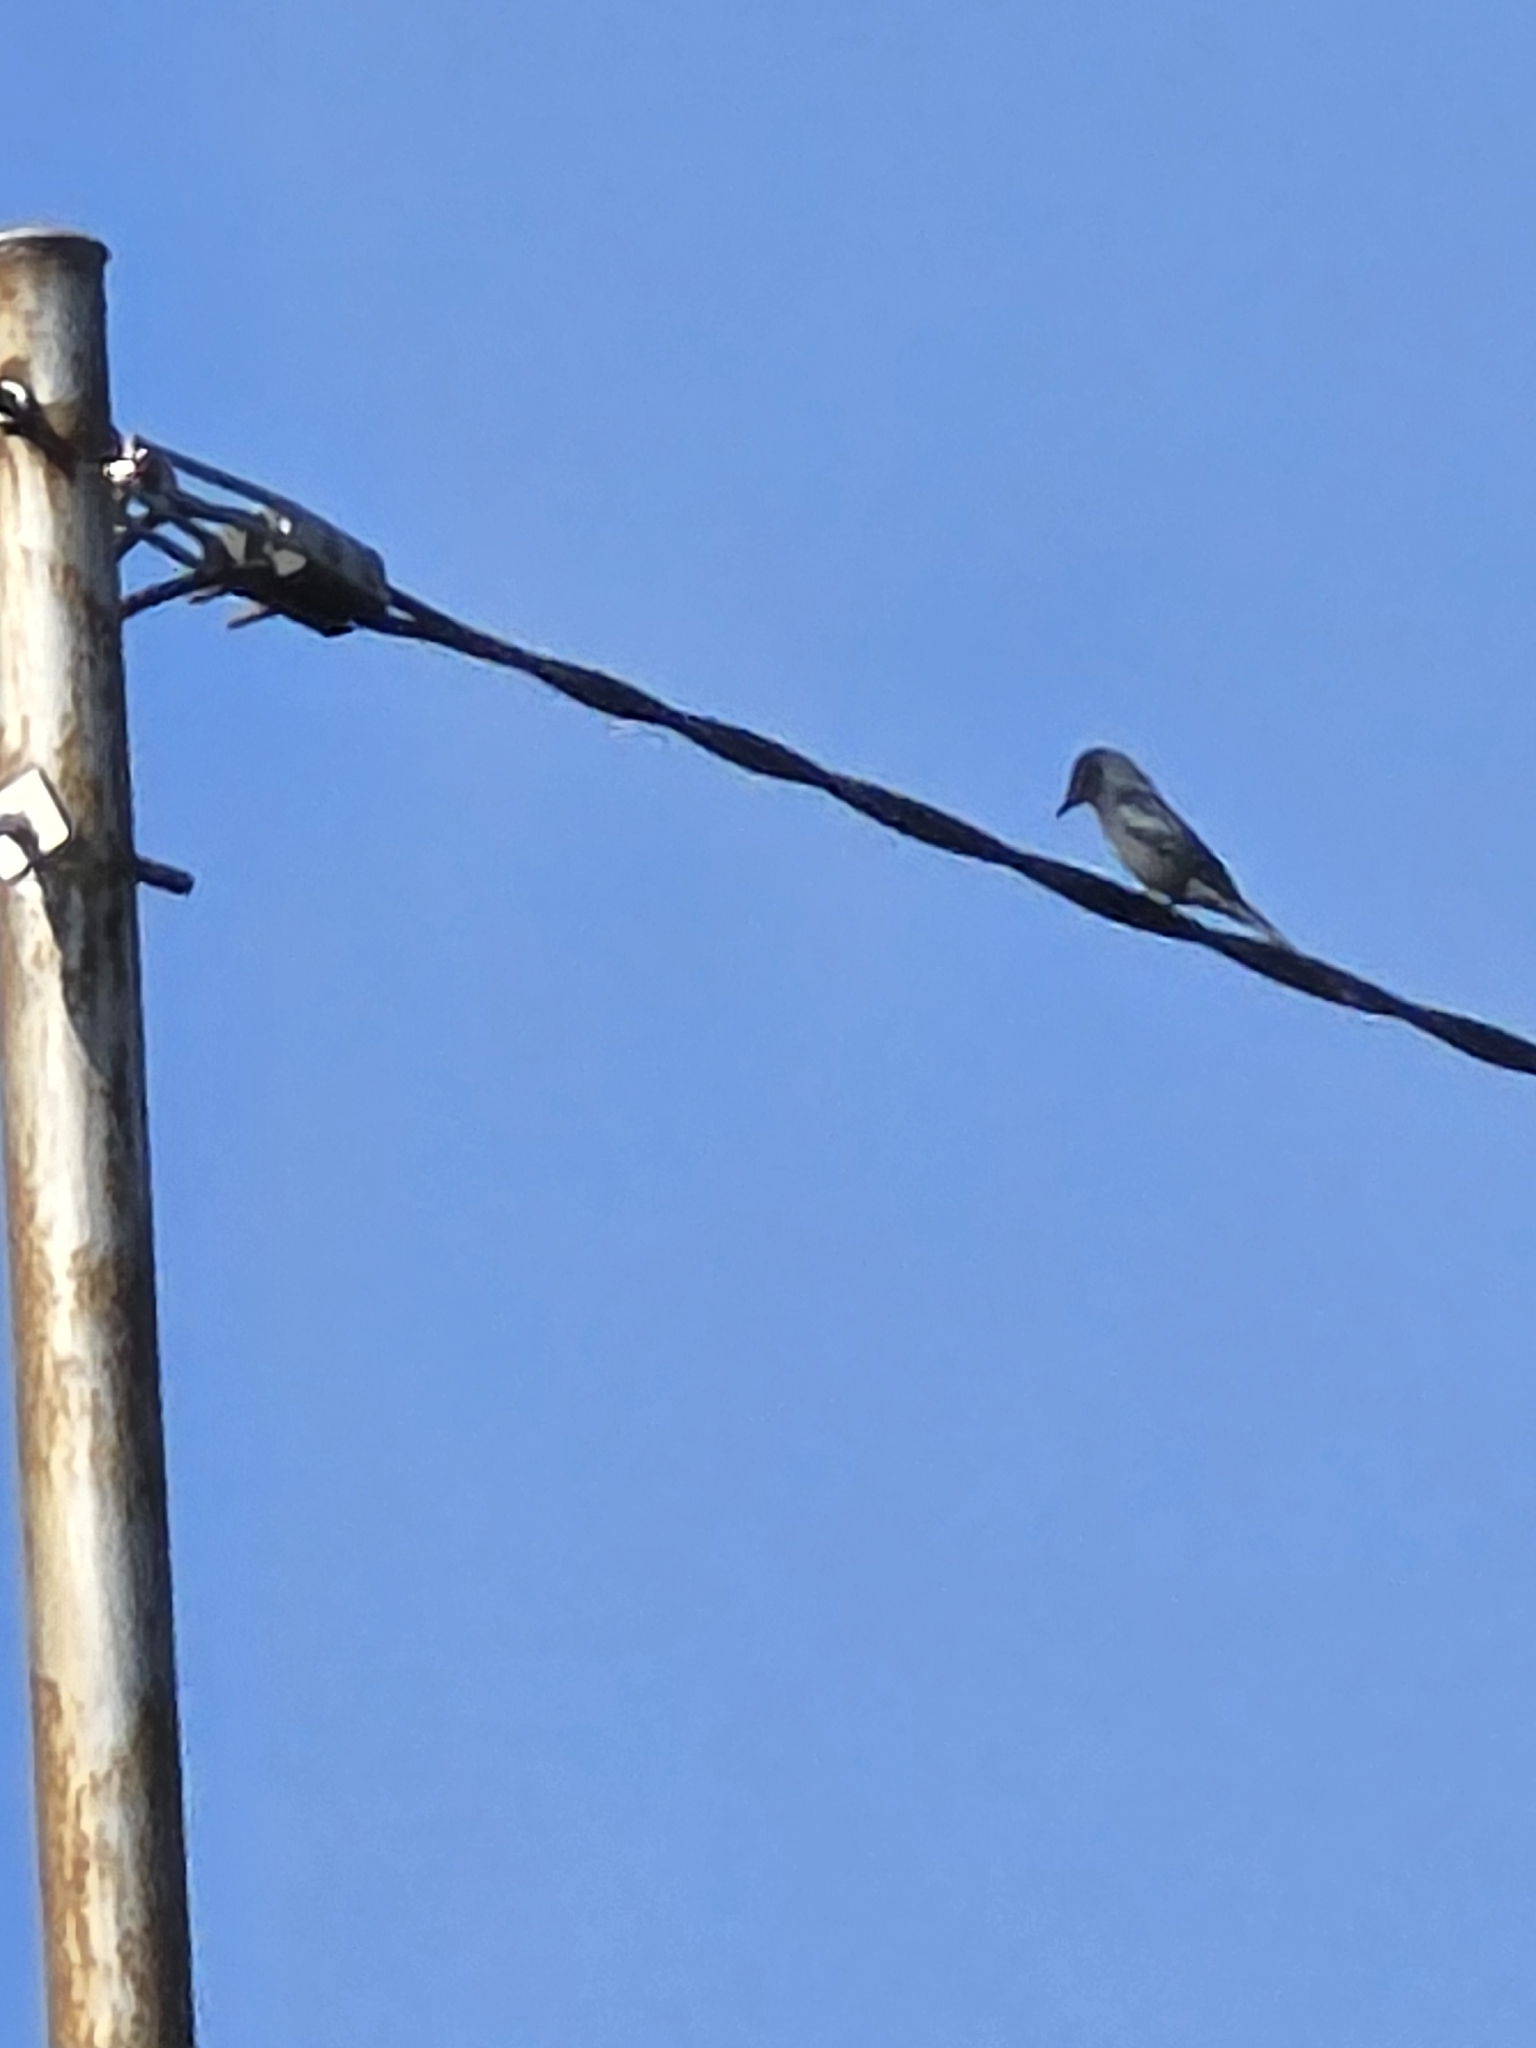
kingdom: Animalia
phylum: Chordata
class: Aves
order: Passeriformes
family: Dicruridae
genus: Dicrurus
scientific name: Dicrurus leucophaeus
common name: Ashy drongo
